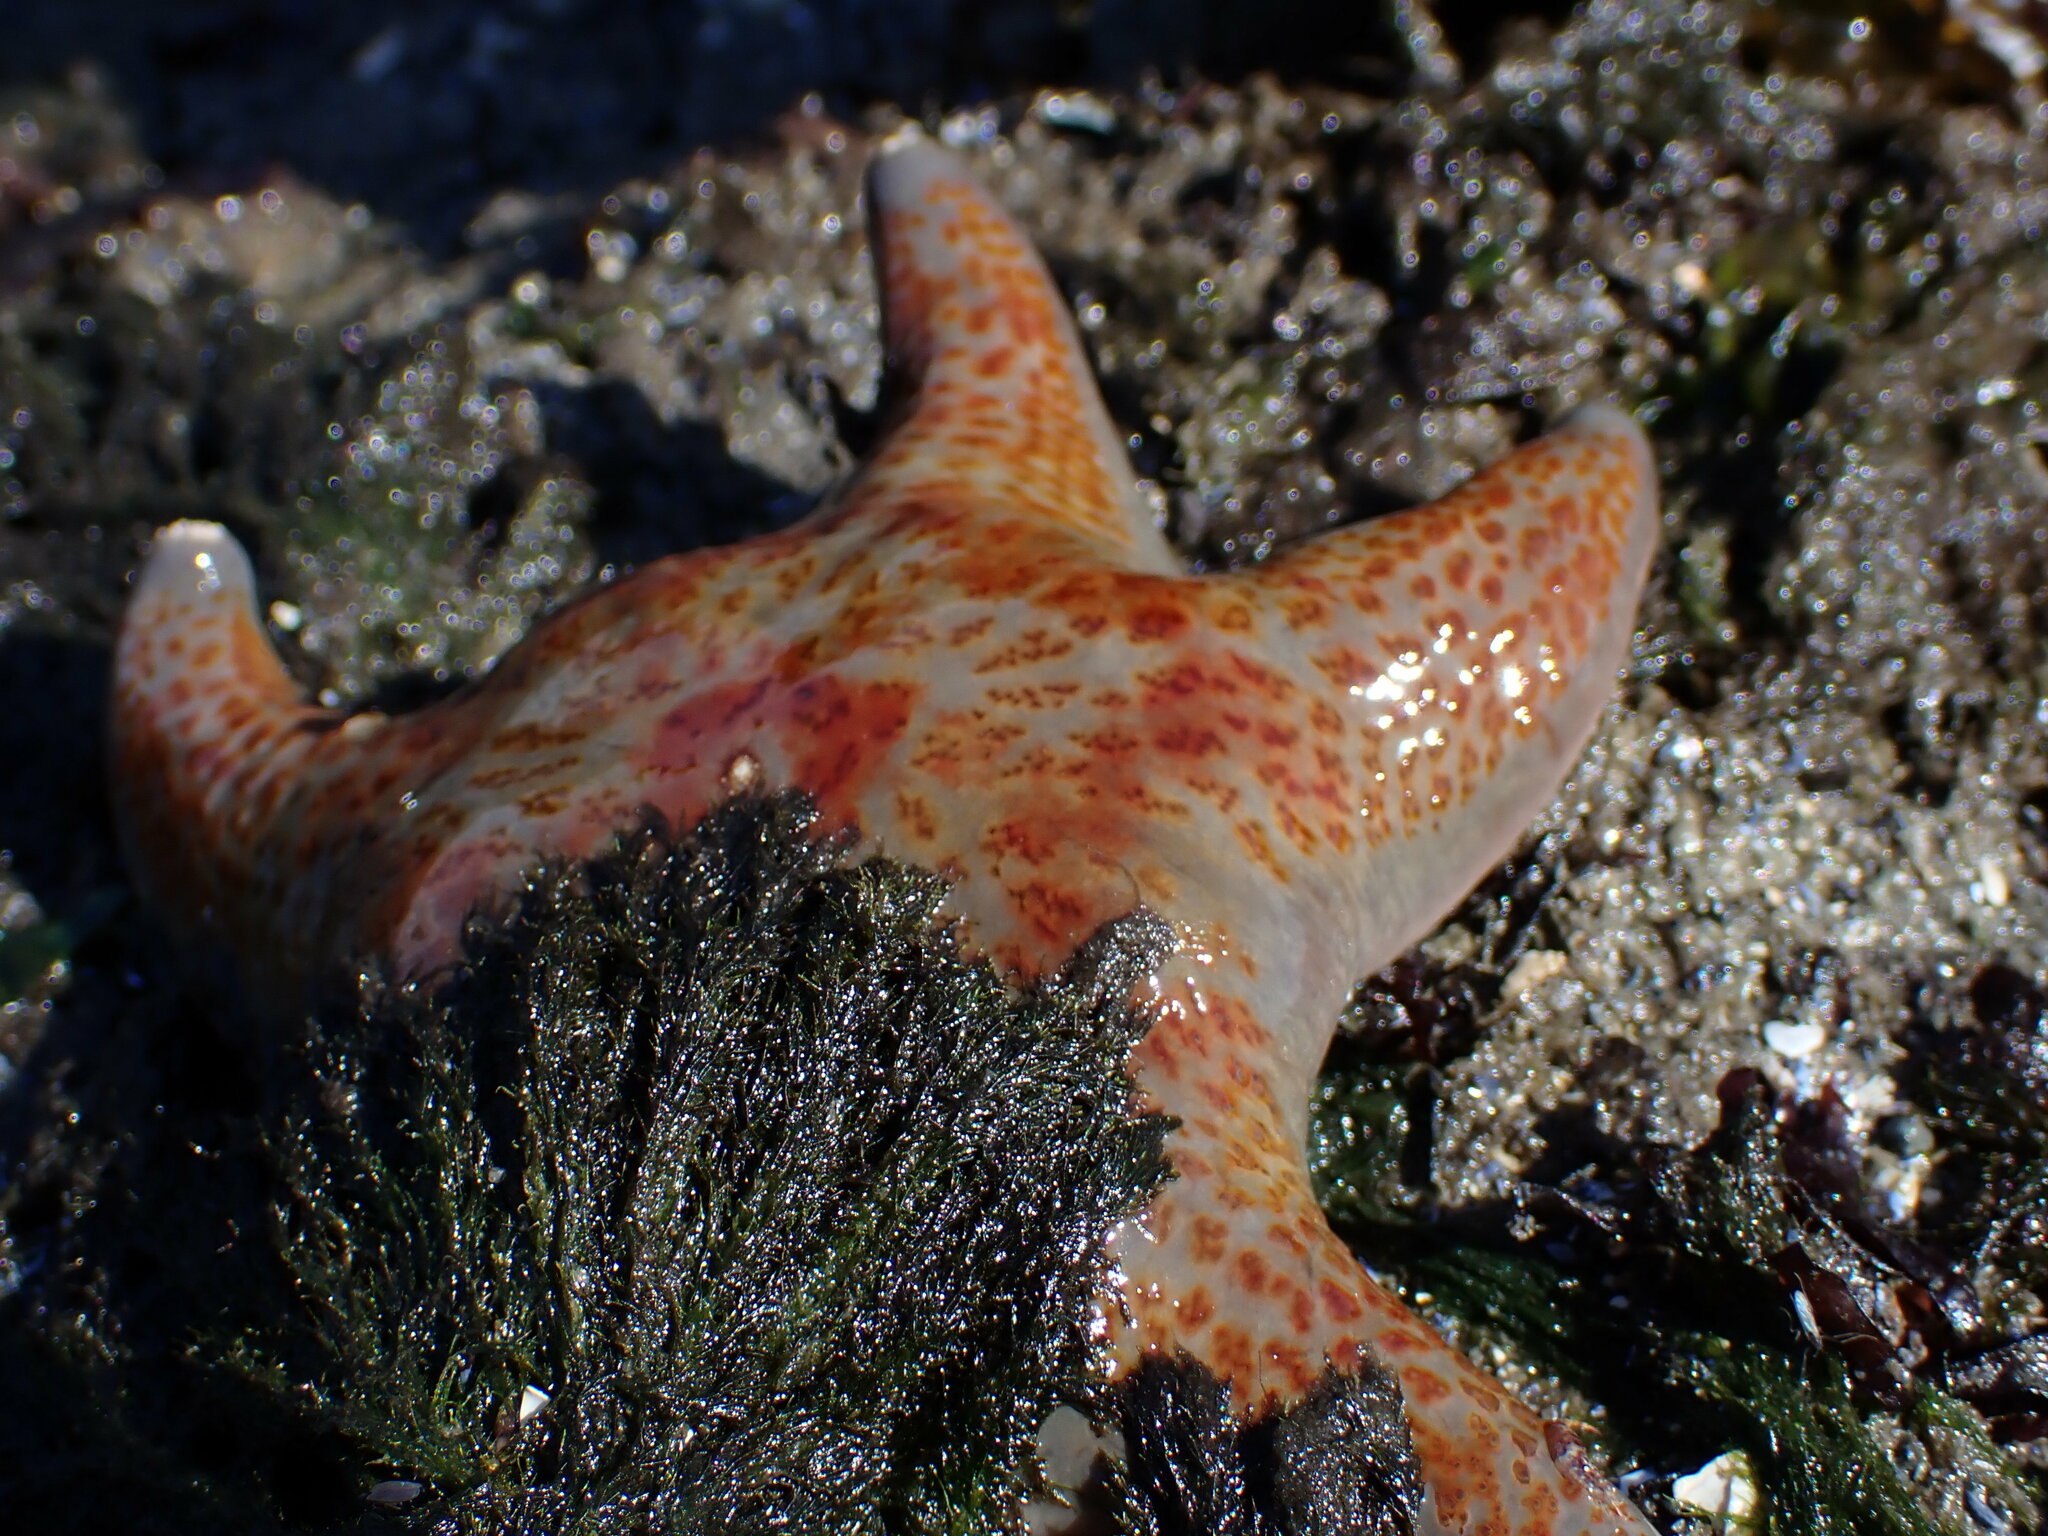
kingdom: Animalia
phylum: Echinodermata
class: Asteroidea
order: Valvatida
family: Asteropseidae
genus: Dermasterias
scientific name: Dermasterias imbricata
